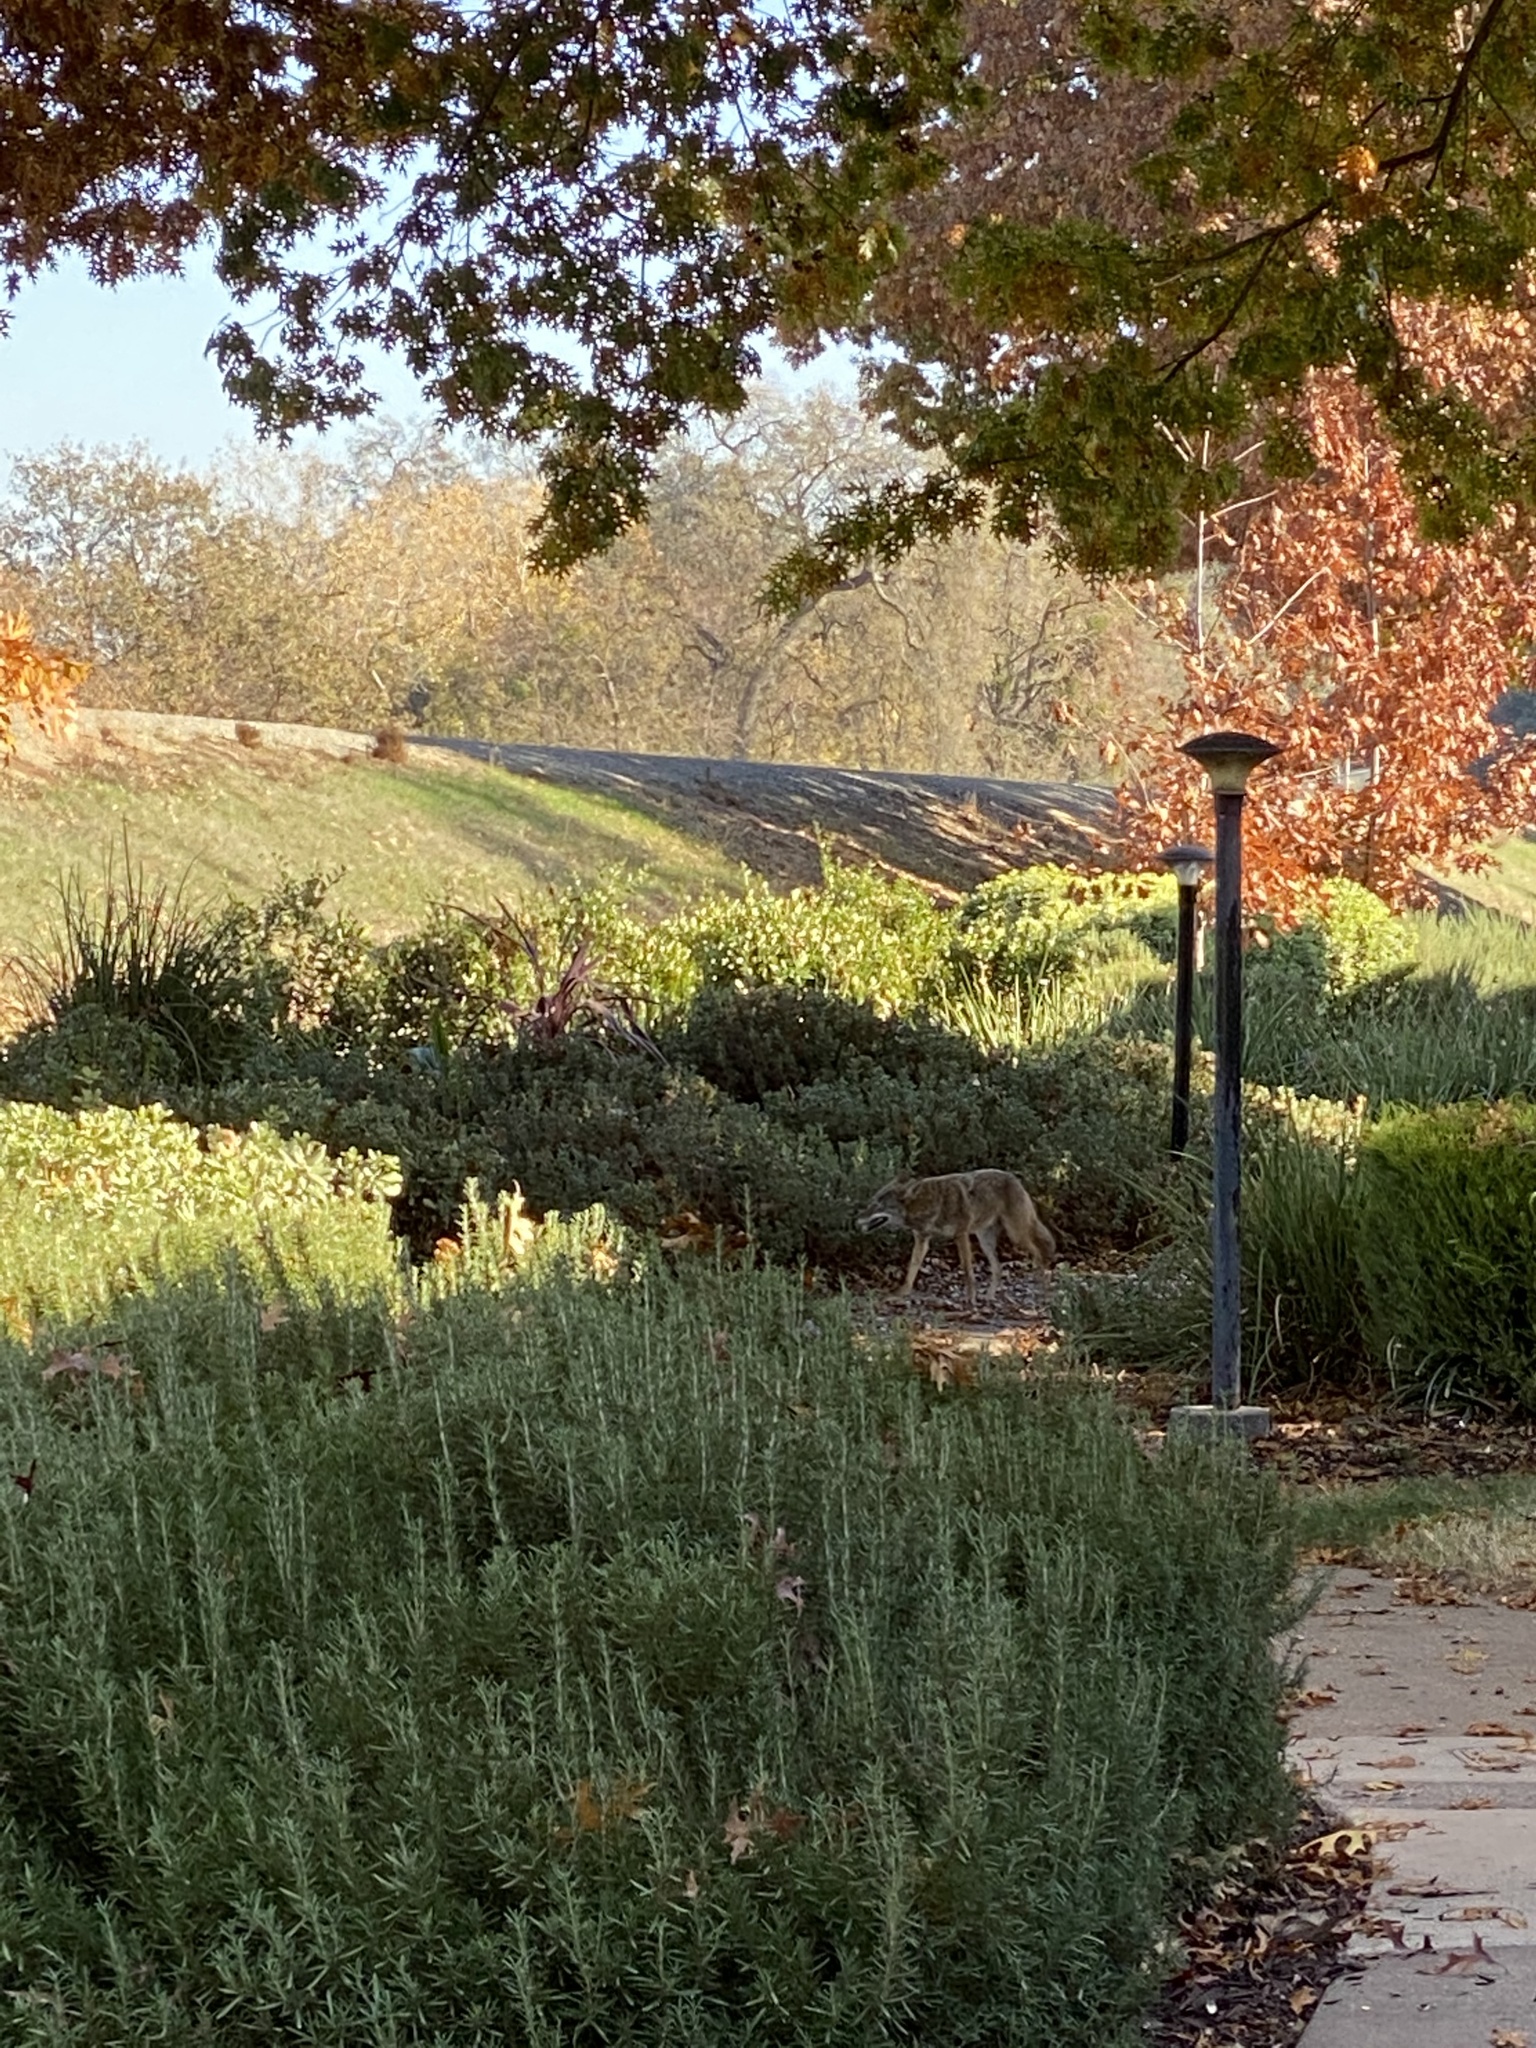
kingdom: Animalia
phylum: Chordata
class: Mammalia
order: Carnivora
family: Canidae
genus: Canis
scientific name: Canis latrans
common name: Coyote
